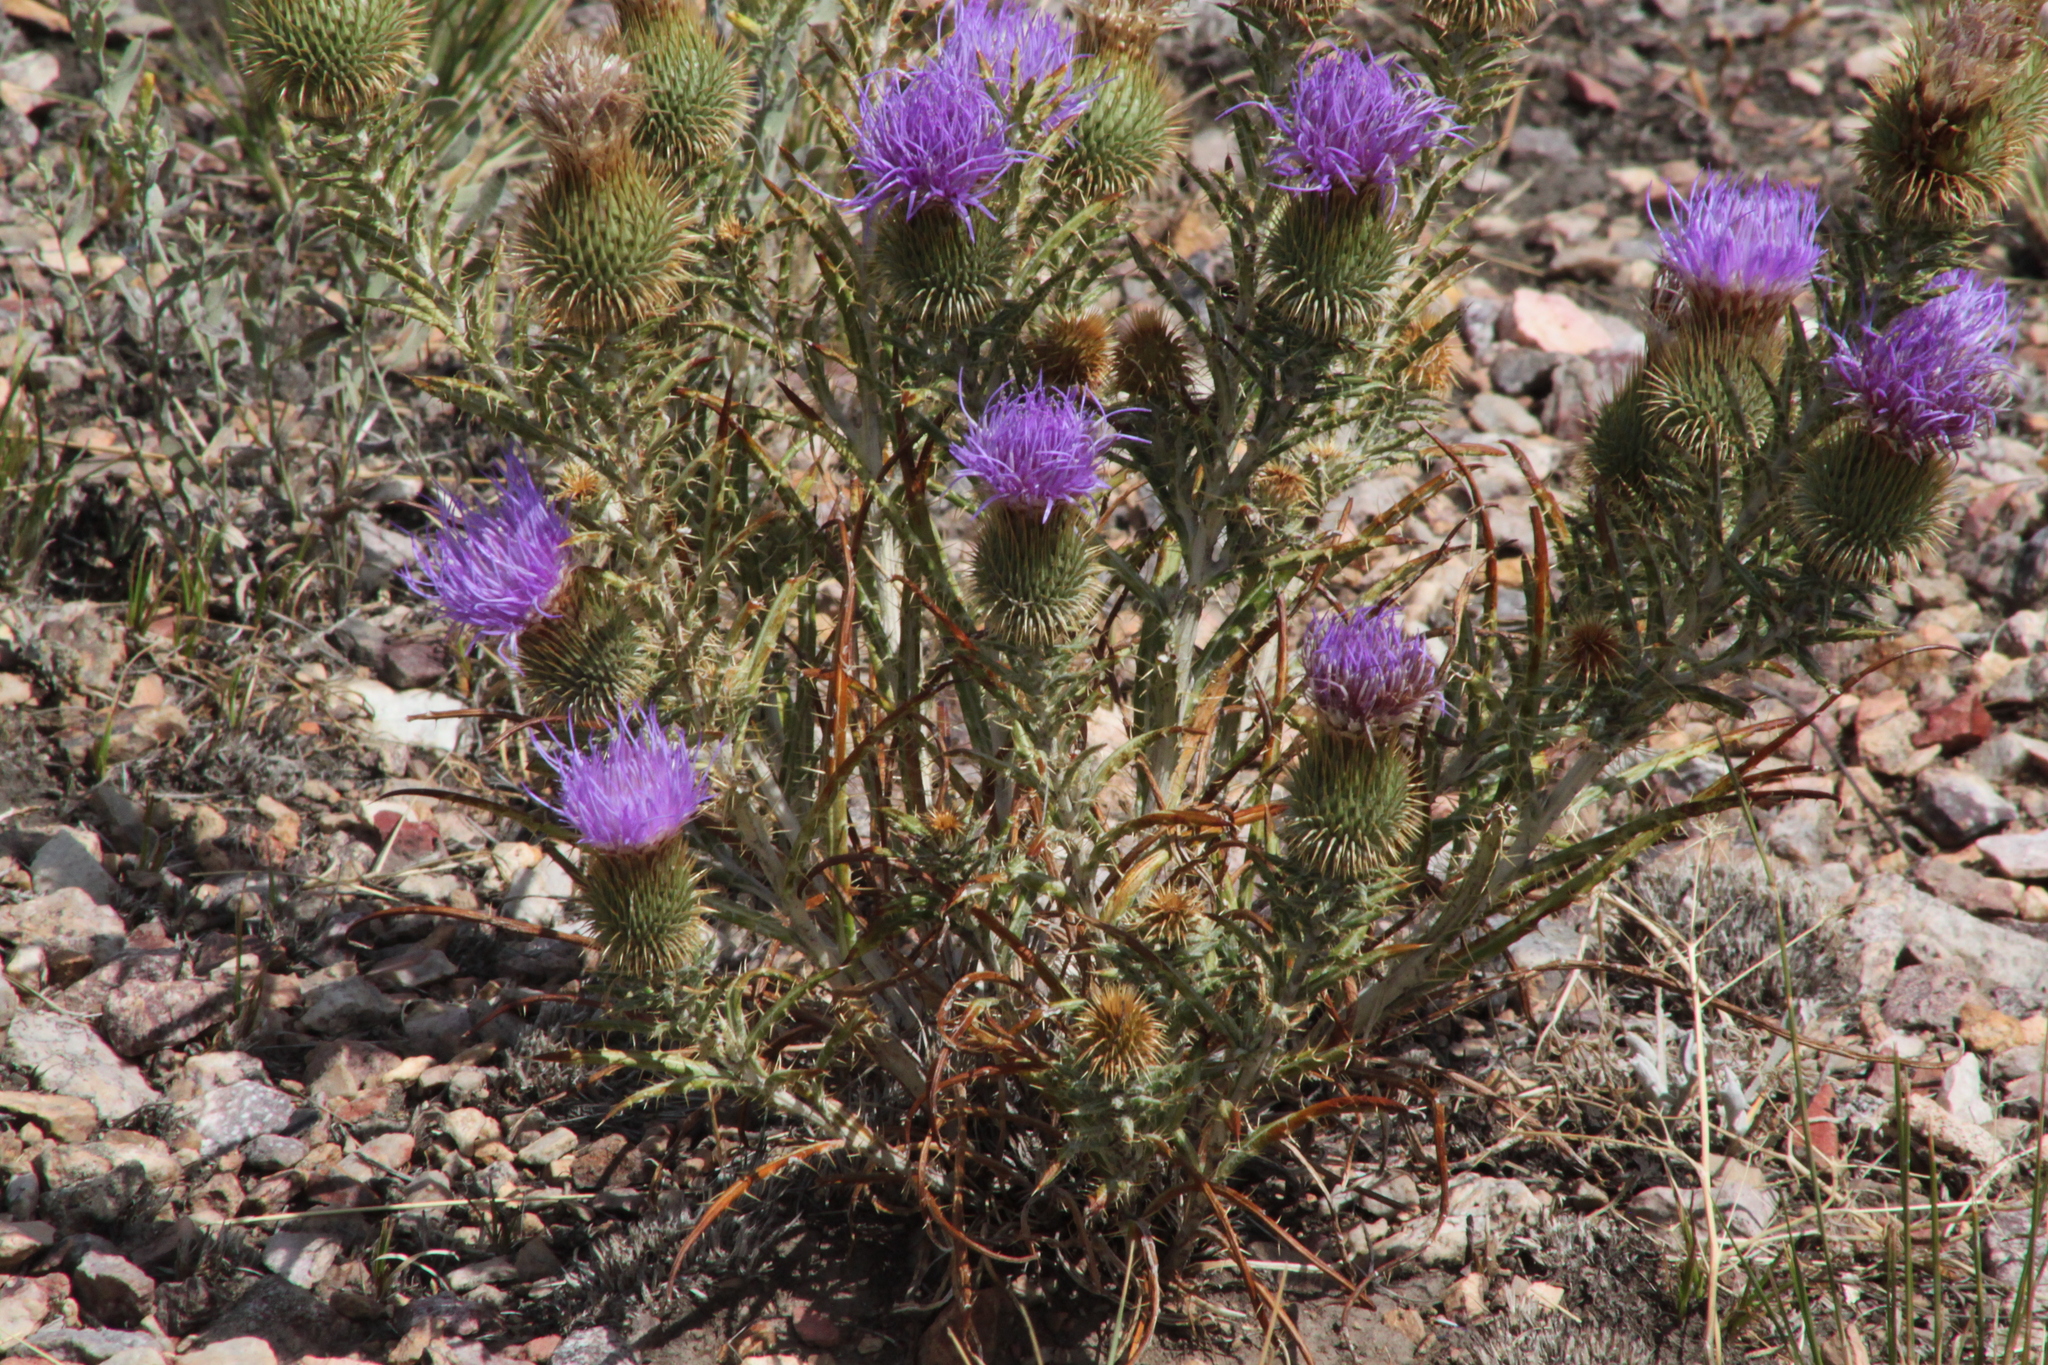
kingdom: Plantae
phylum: Tracheophyta
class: Magnoliopsida
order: Asterales
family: Asteraceae
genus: Ancathia
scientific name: Ancathia igniaria
